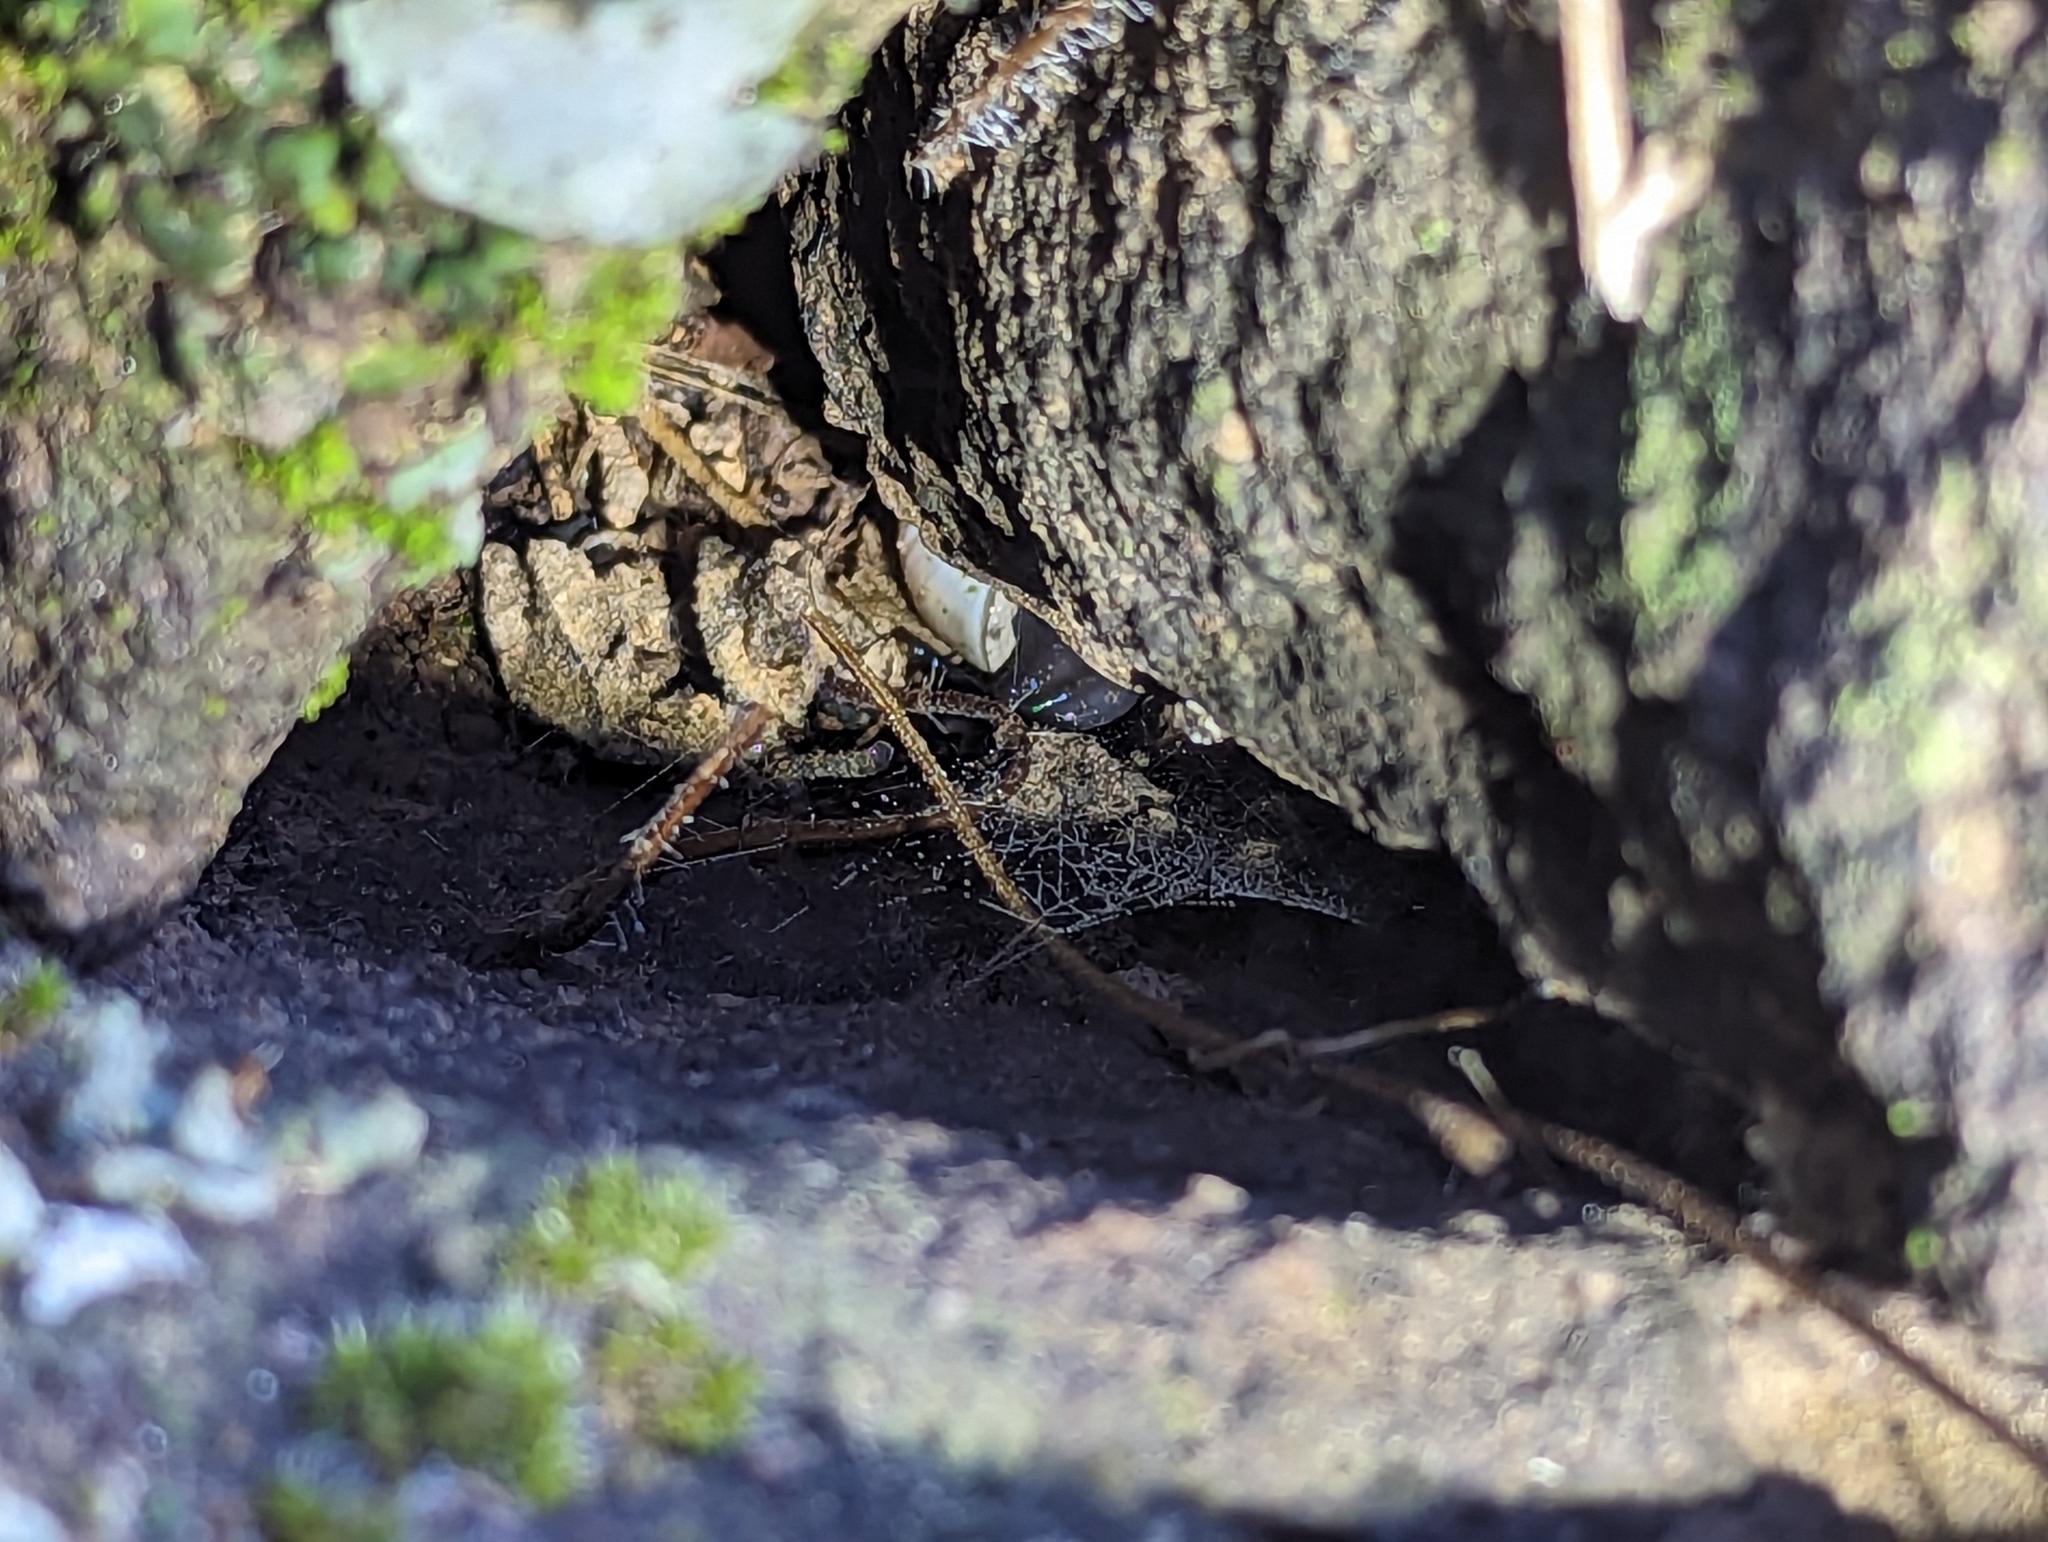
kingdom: Animalia
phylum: Mollusca
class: Gastropoda
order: Stylommatophora
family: Xanthonychidae
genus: Maricopella
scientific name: Maricopella allynsmithi
